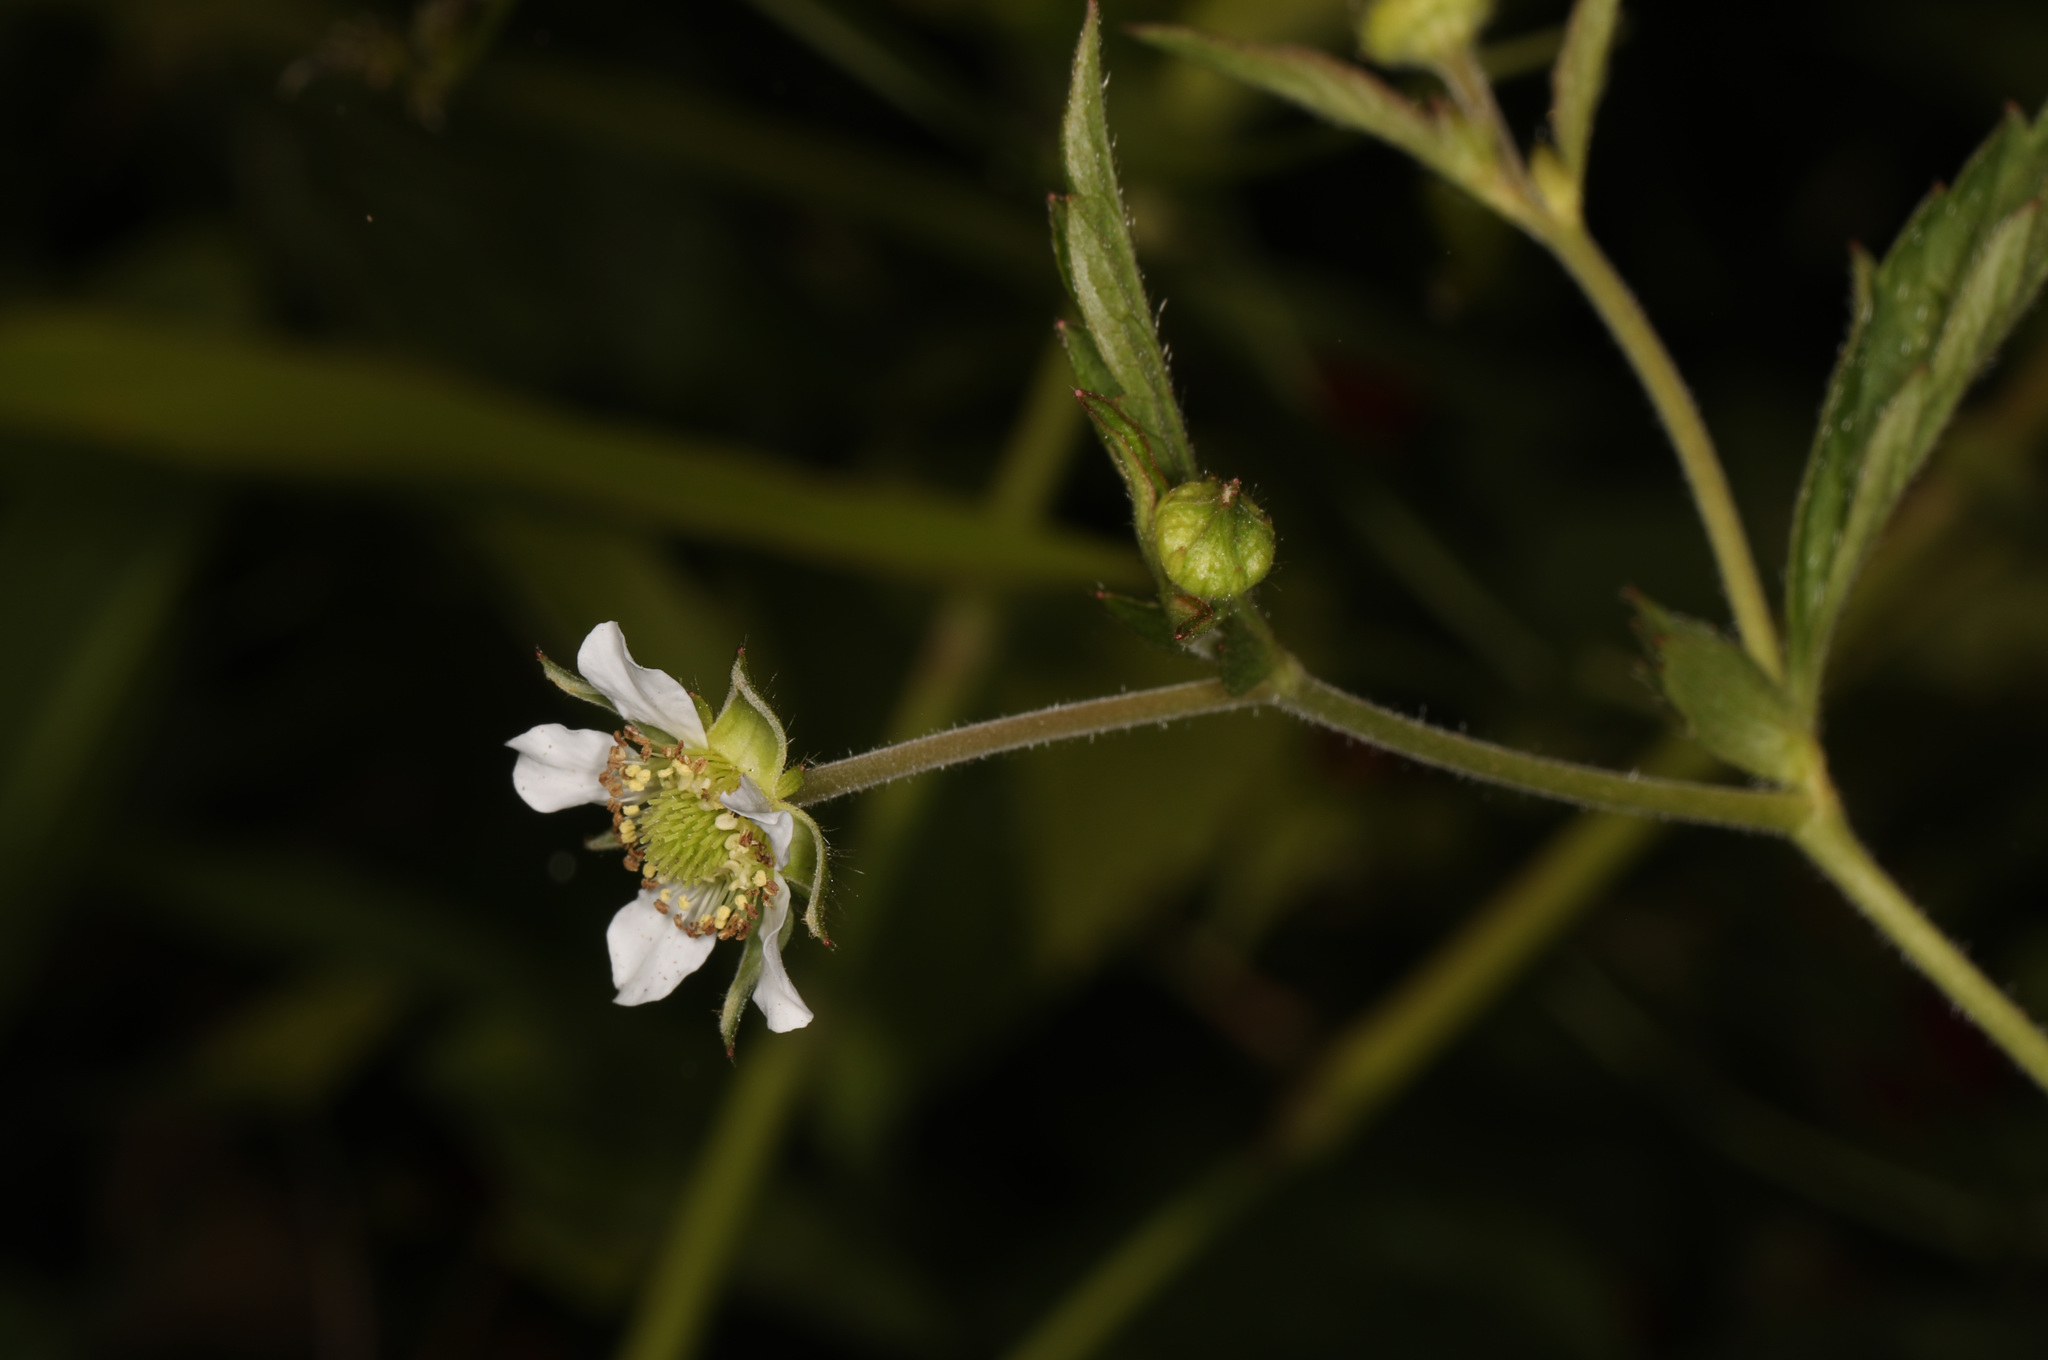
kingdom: Plantae
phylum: Tracheophyta
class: Magnoliopsida
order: Rosales
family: Rosaceae
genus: Geum
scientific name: Geum canadense
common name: White avens
